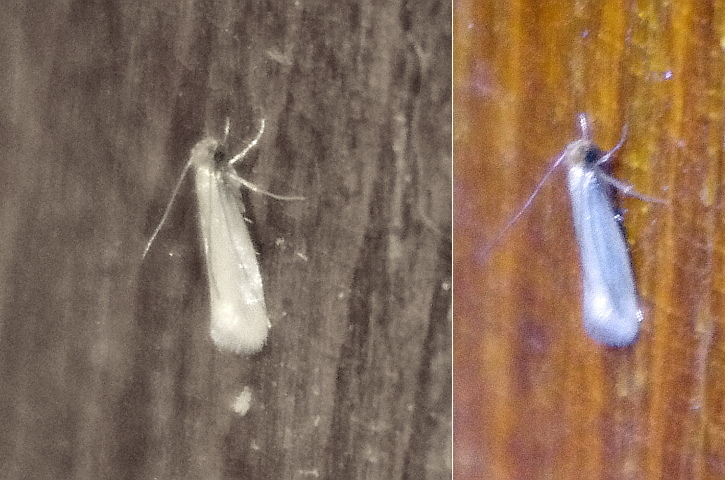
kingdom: Animalia
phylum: Arthropoda
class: Insecta
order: Lepidoptera
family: Tineidae
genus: Tineola
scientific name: Tineola bisselliella
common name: Webbing clothes moth
